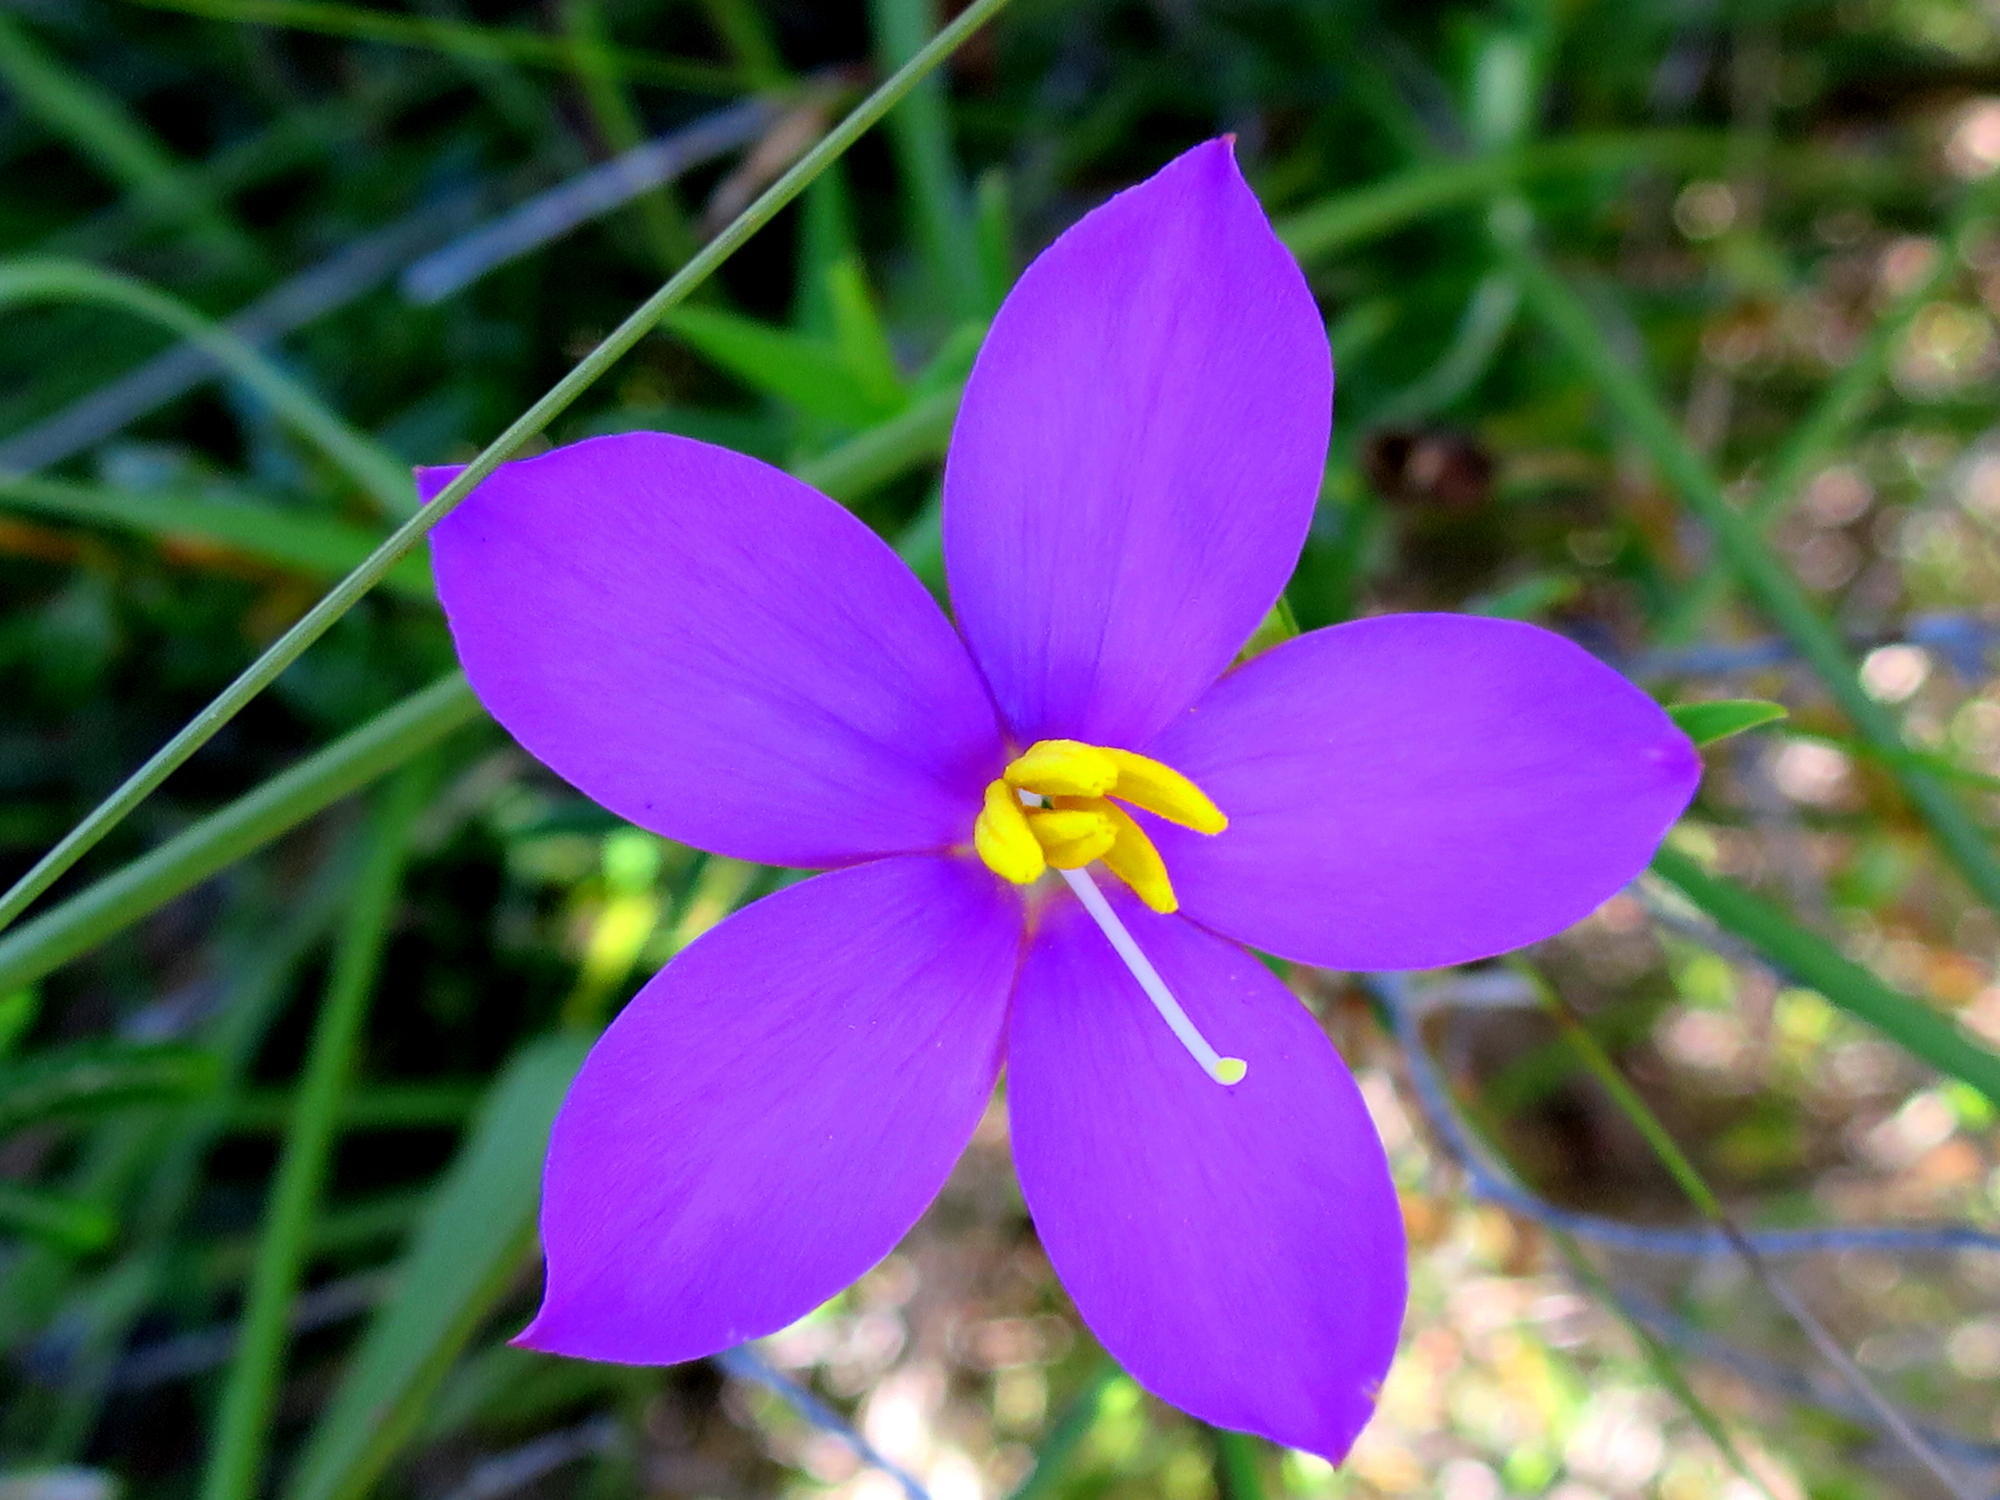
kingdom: Plantae
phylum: Tracheophyta
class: Magnoliopsida
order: Gentianales
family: Gentianaceae
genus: Chironia
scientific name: Chironia tetragona
